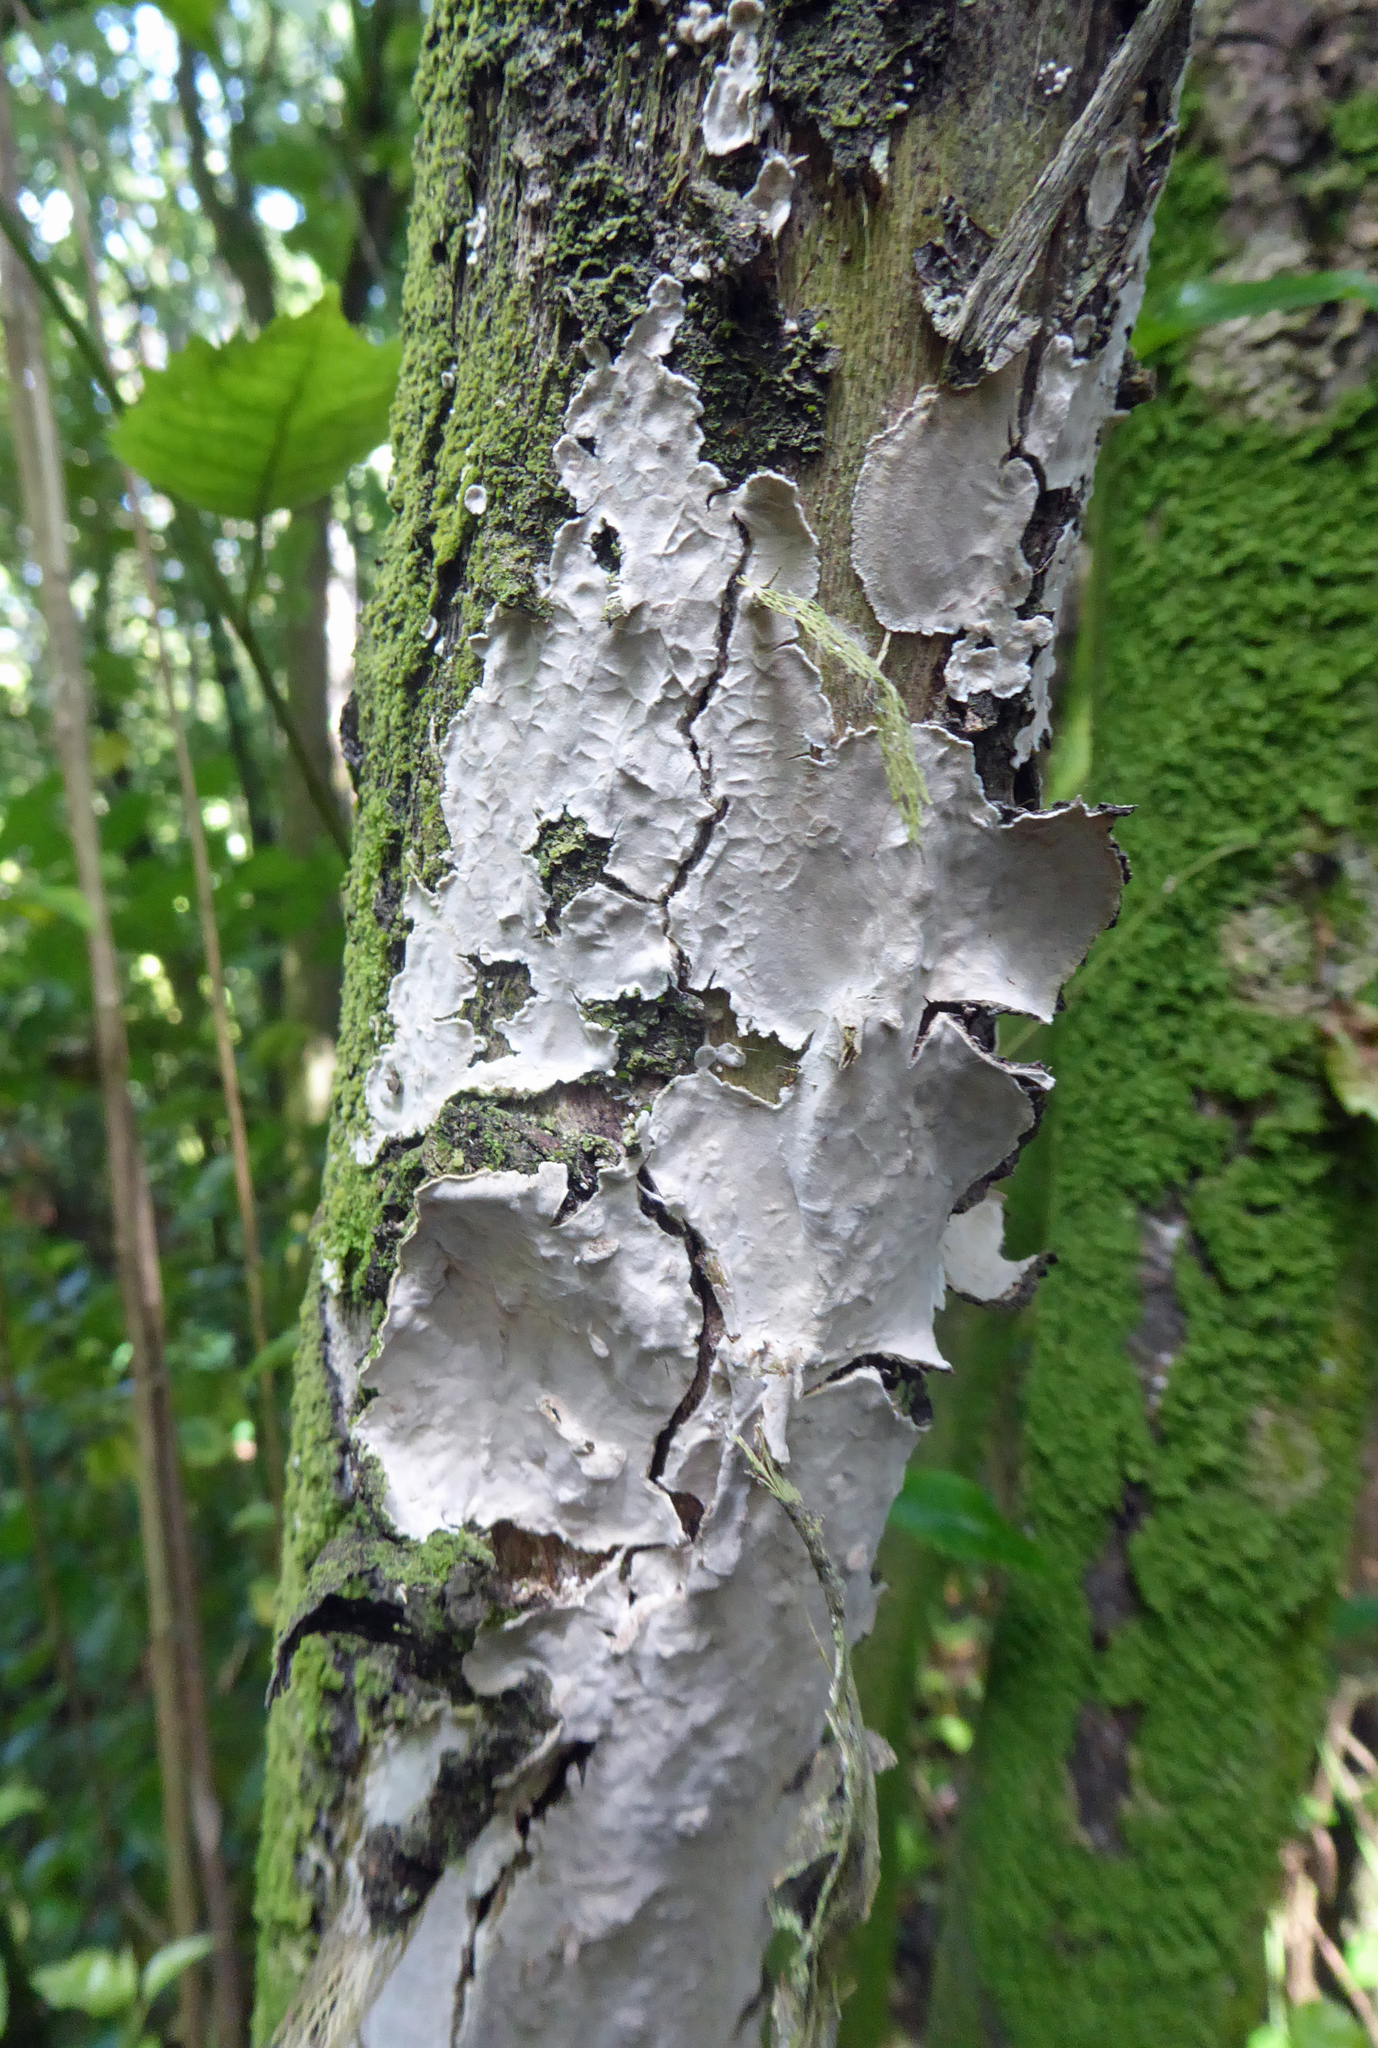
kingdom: Fungi
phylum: Basidiomycota
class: Agaricomycetes
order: Polyporales
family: Polyporaceae
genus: Lopharia
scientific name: Lopharia cinerascens
